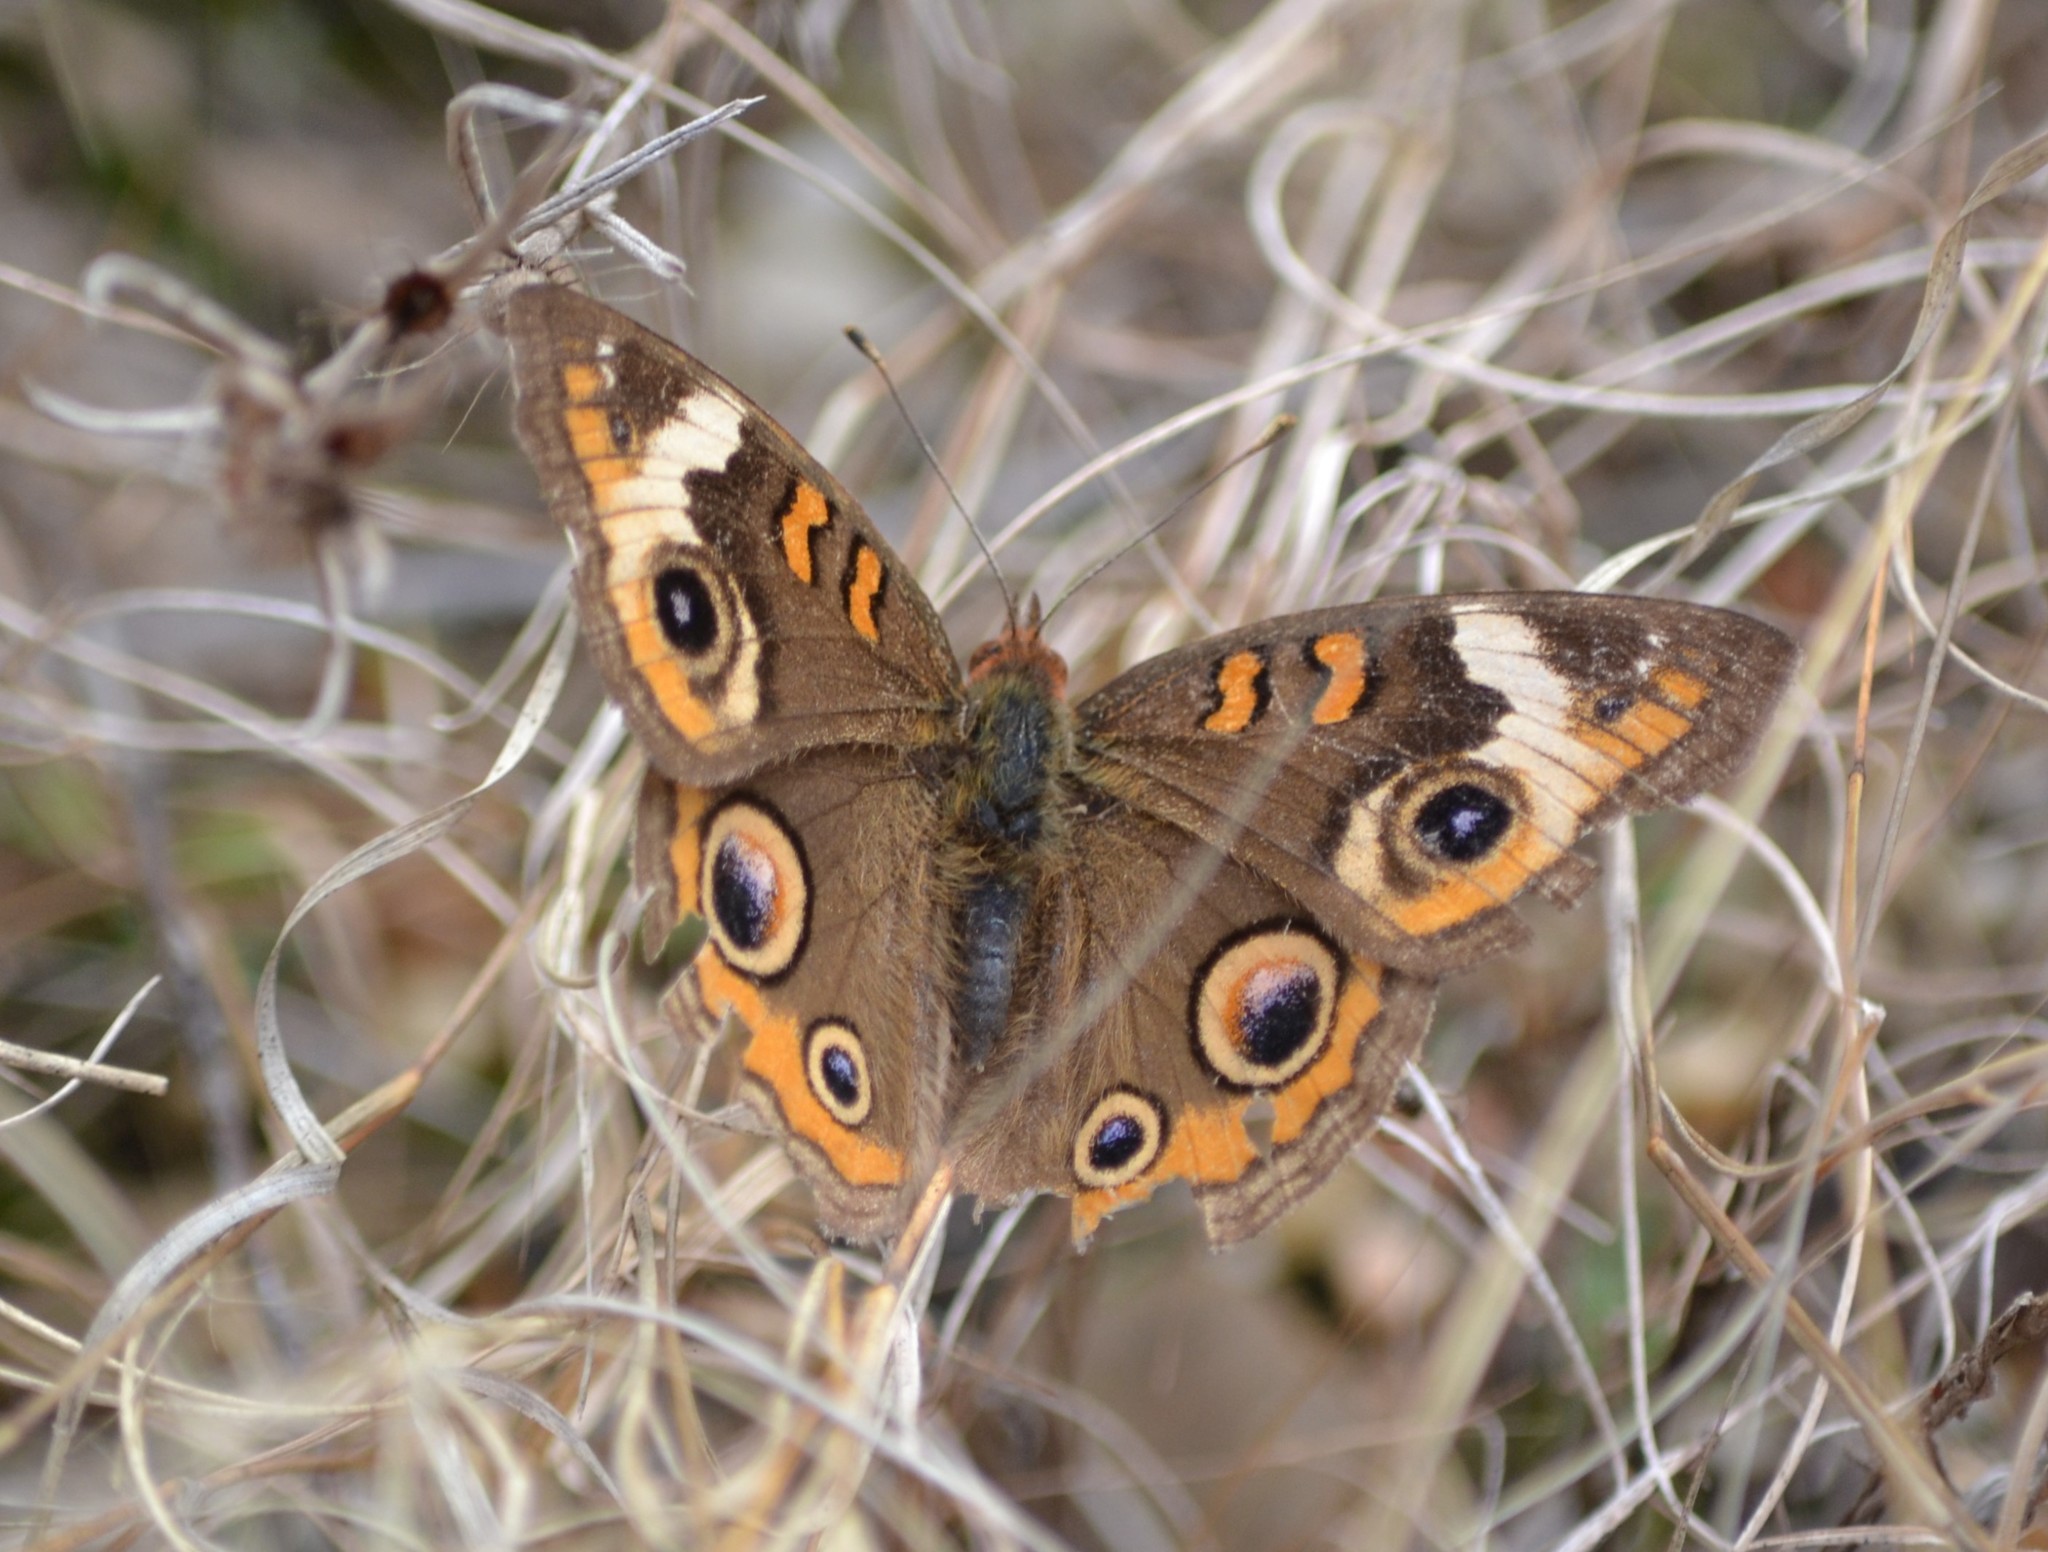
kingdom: Animalia
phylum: Arthropoda
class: Insecta
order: Lepidoptera
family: Nymphalidae
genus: Junonia
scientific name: Junonia coenia
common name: Common buckeye
